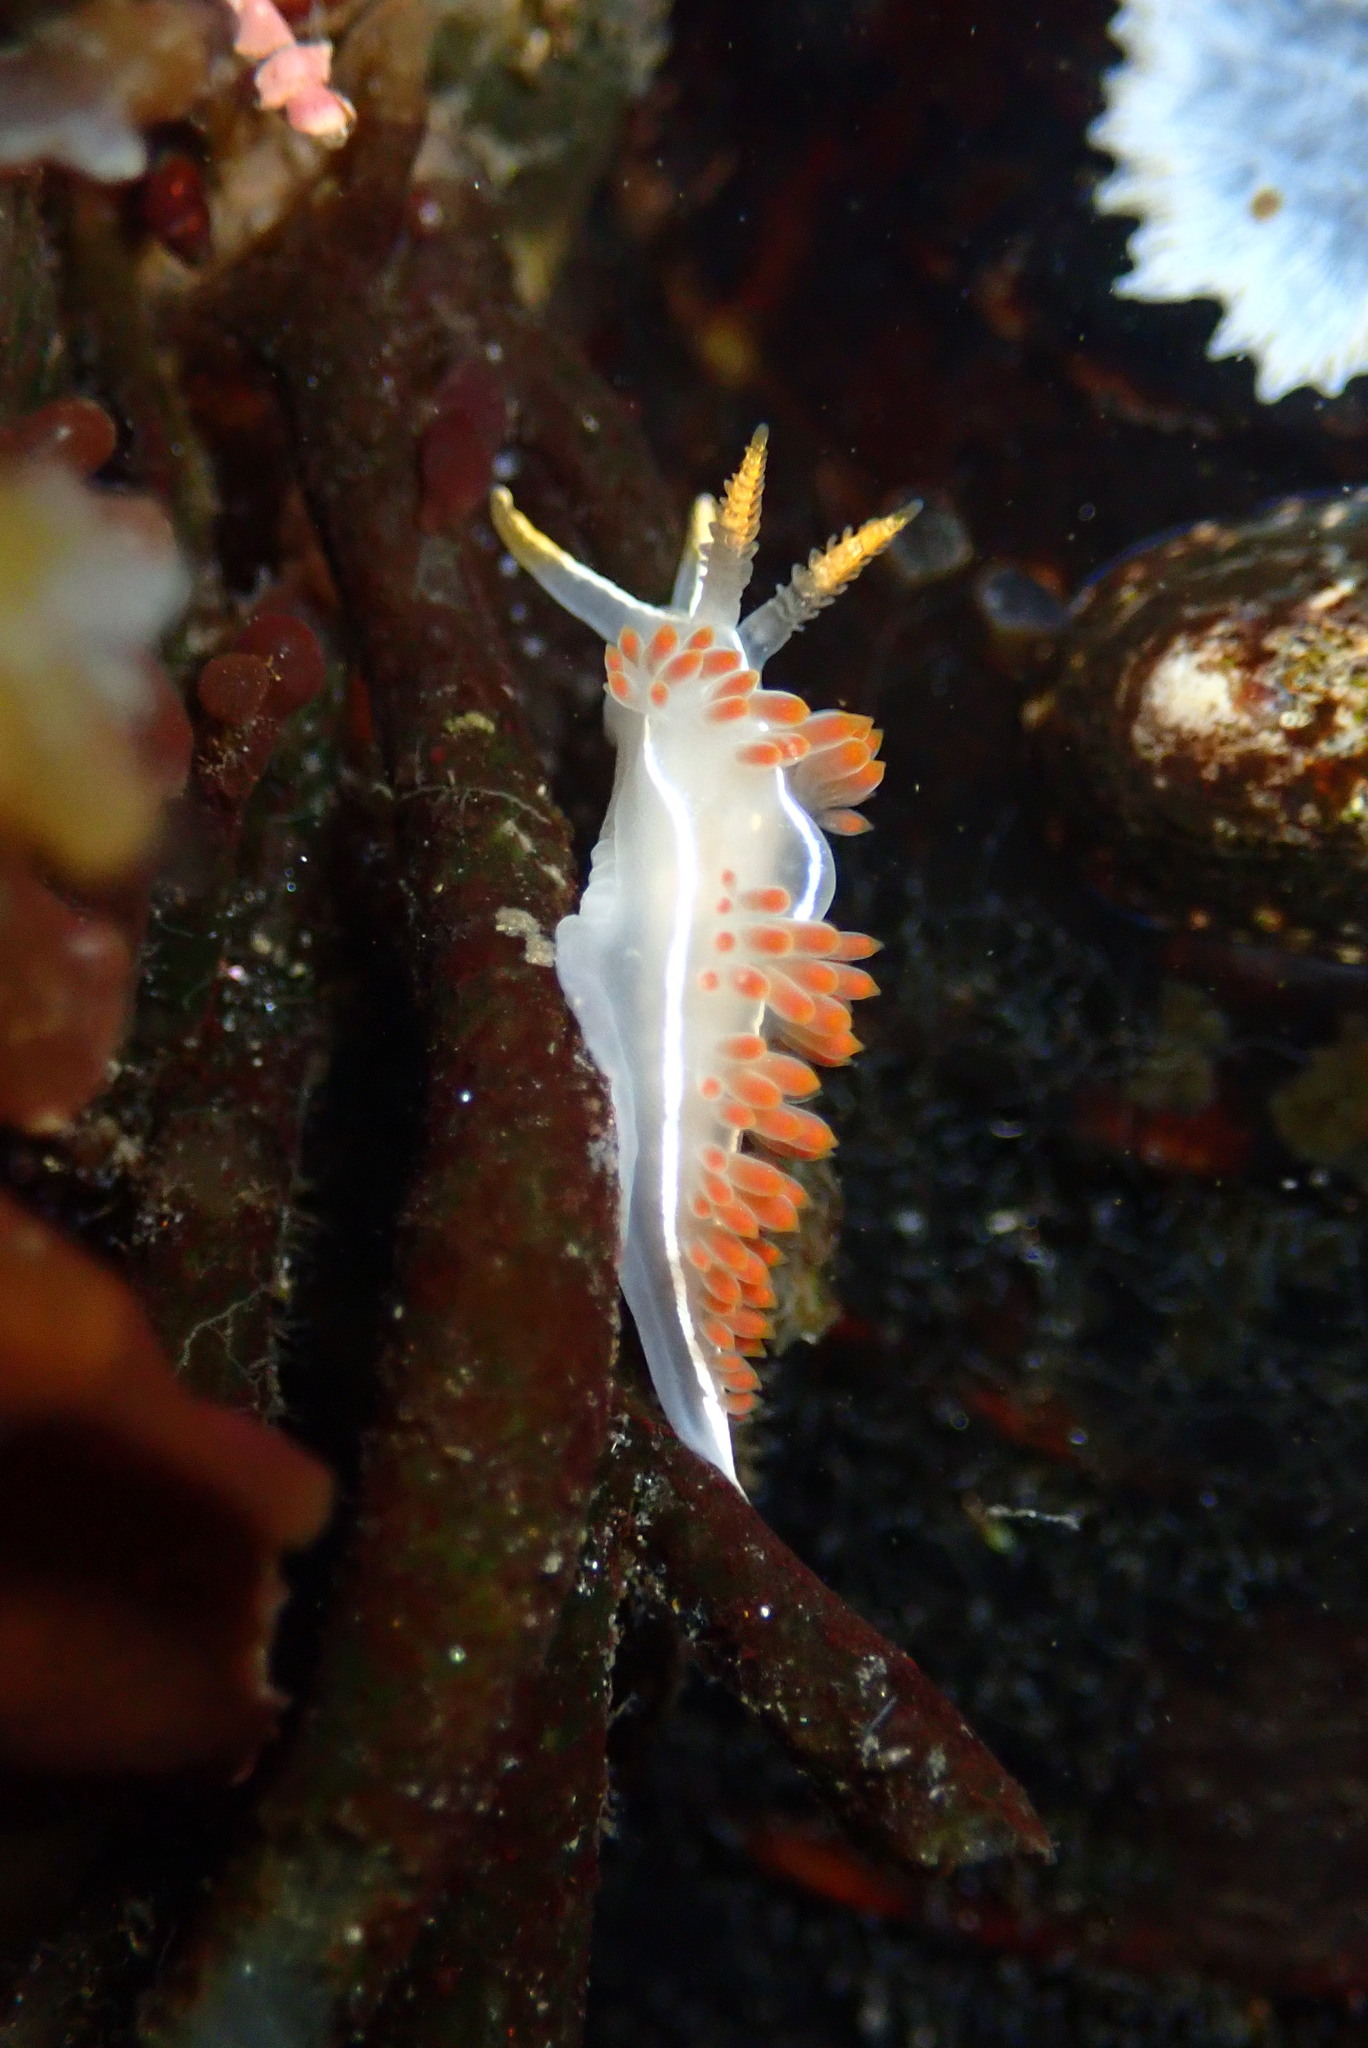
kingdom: Animalia
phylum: Mollusca
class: Gastropoda
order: Nudibranchia
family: Coryphellidae
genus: Coryphella
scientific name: Coryphella trilineata
